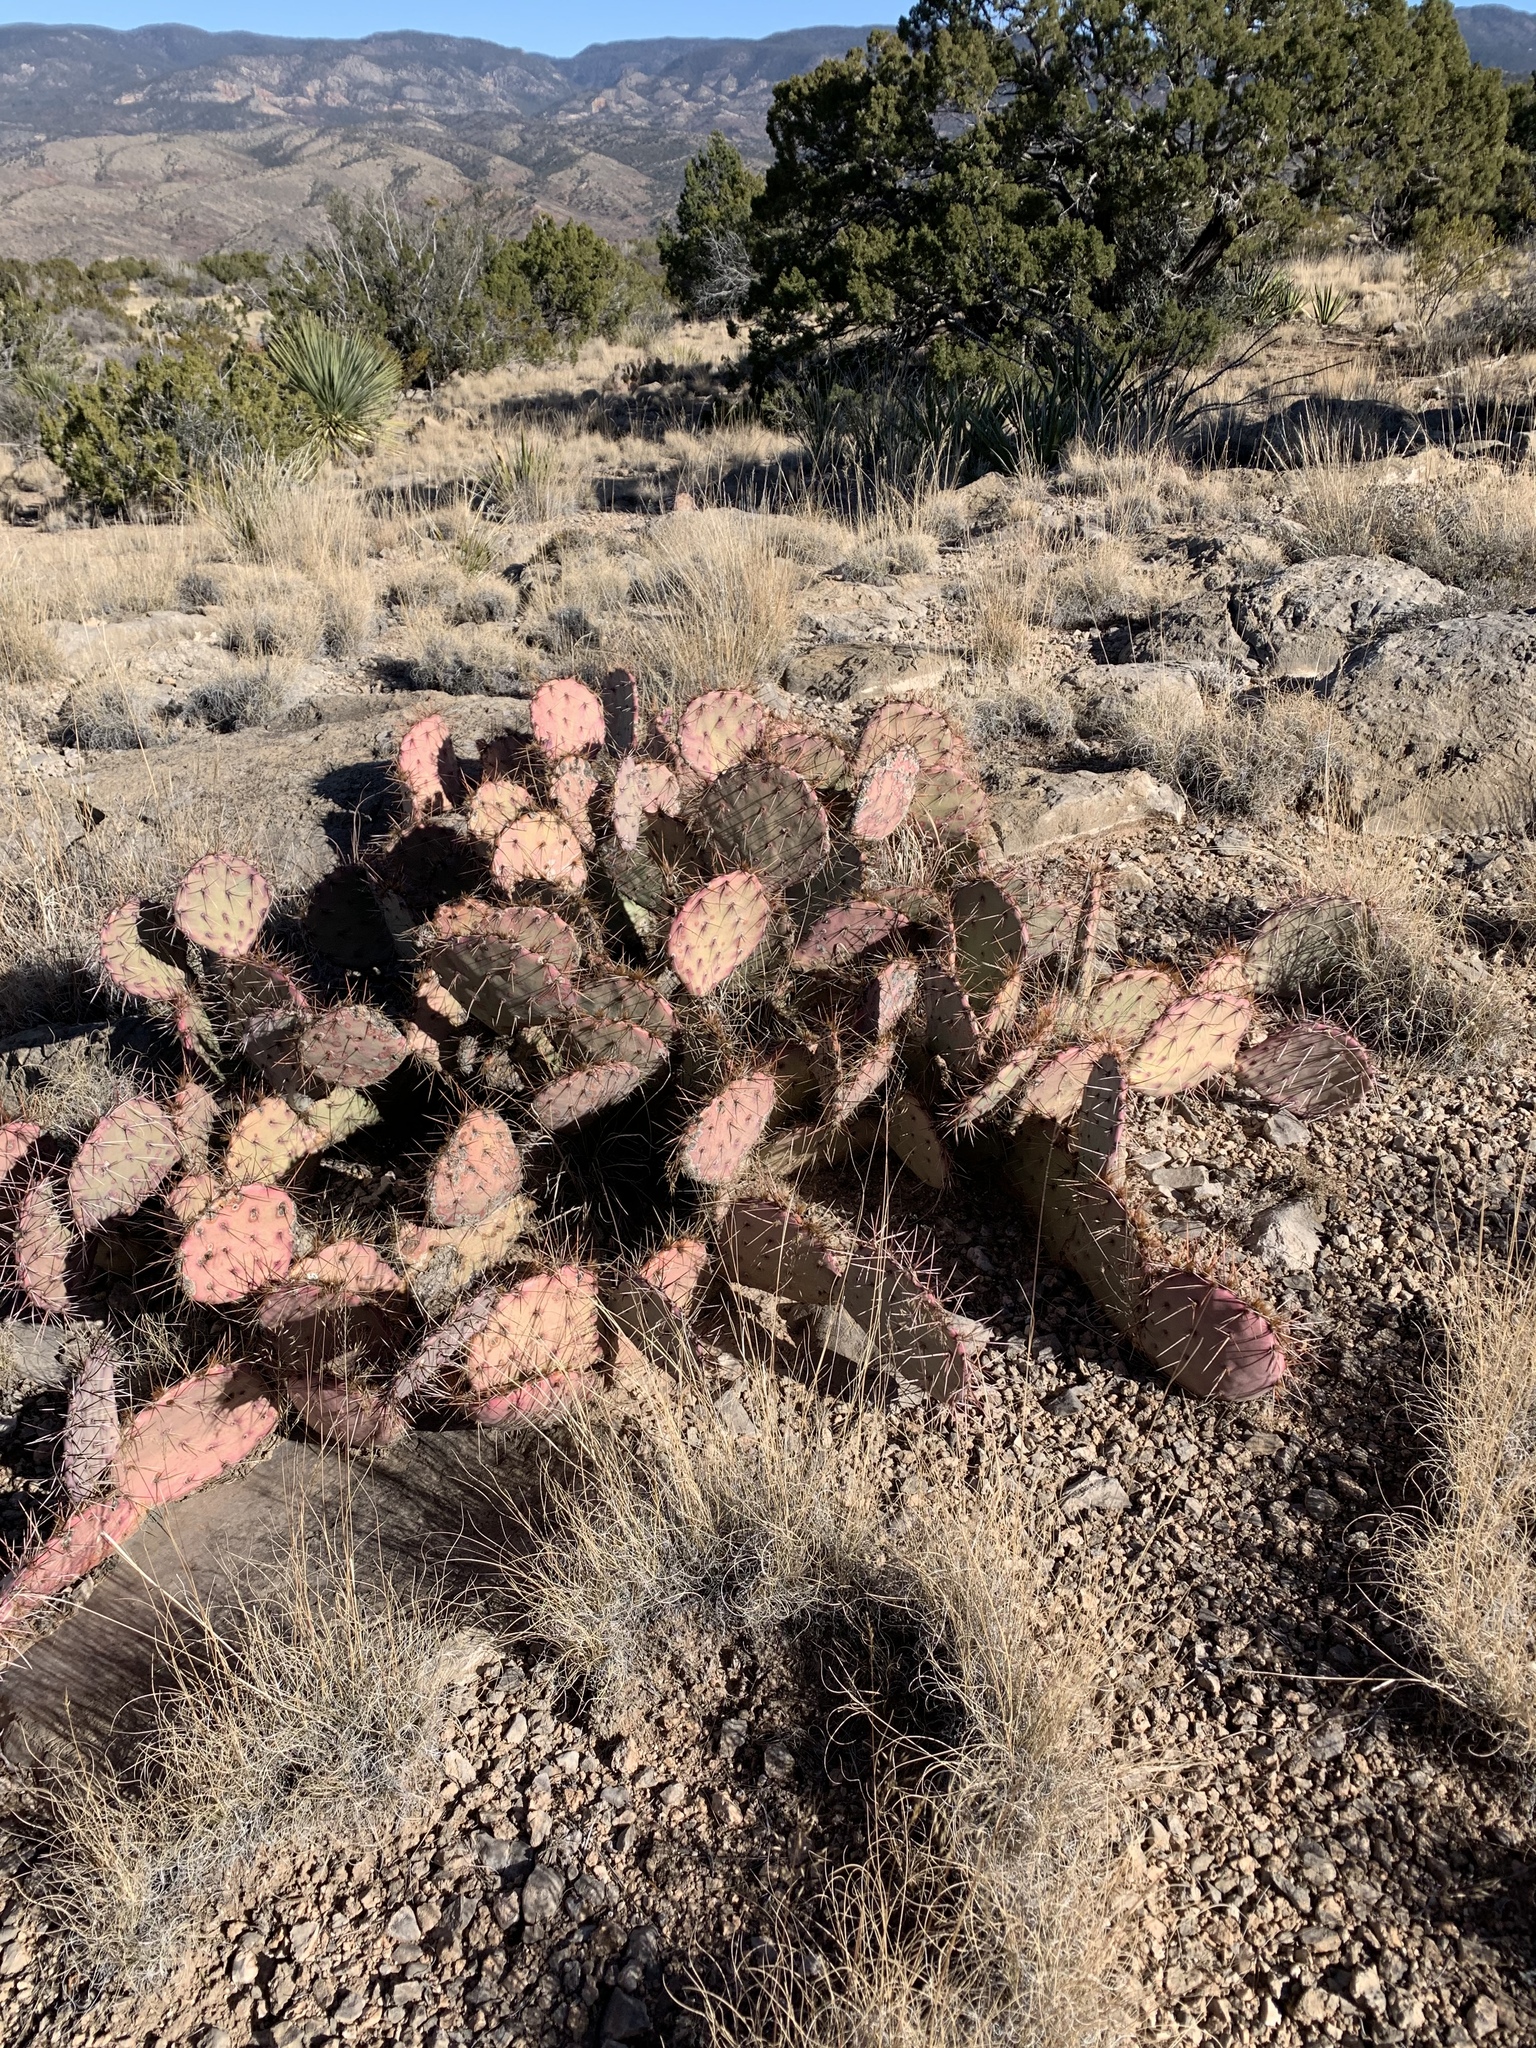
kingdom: Plantae
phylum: Tracheophyta
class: Magnoliopsida
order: Caryophyllales
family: Cactaceae
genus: Opuntia
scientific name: Opuntia macrocentra
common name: Purple prickly-pear
